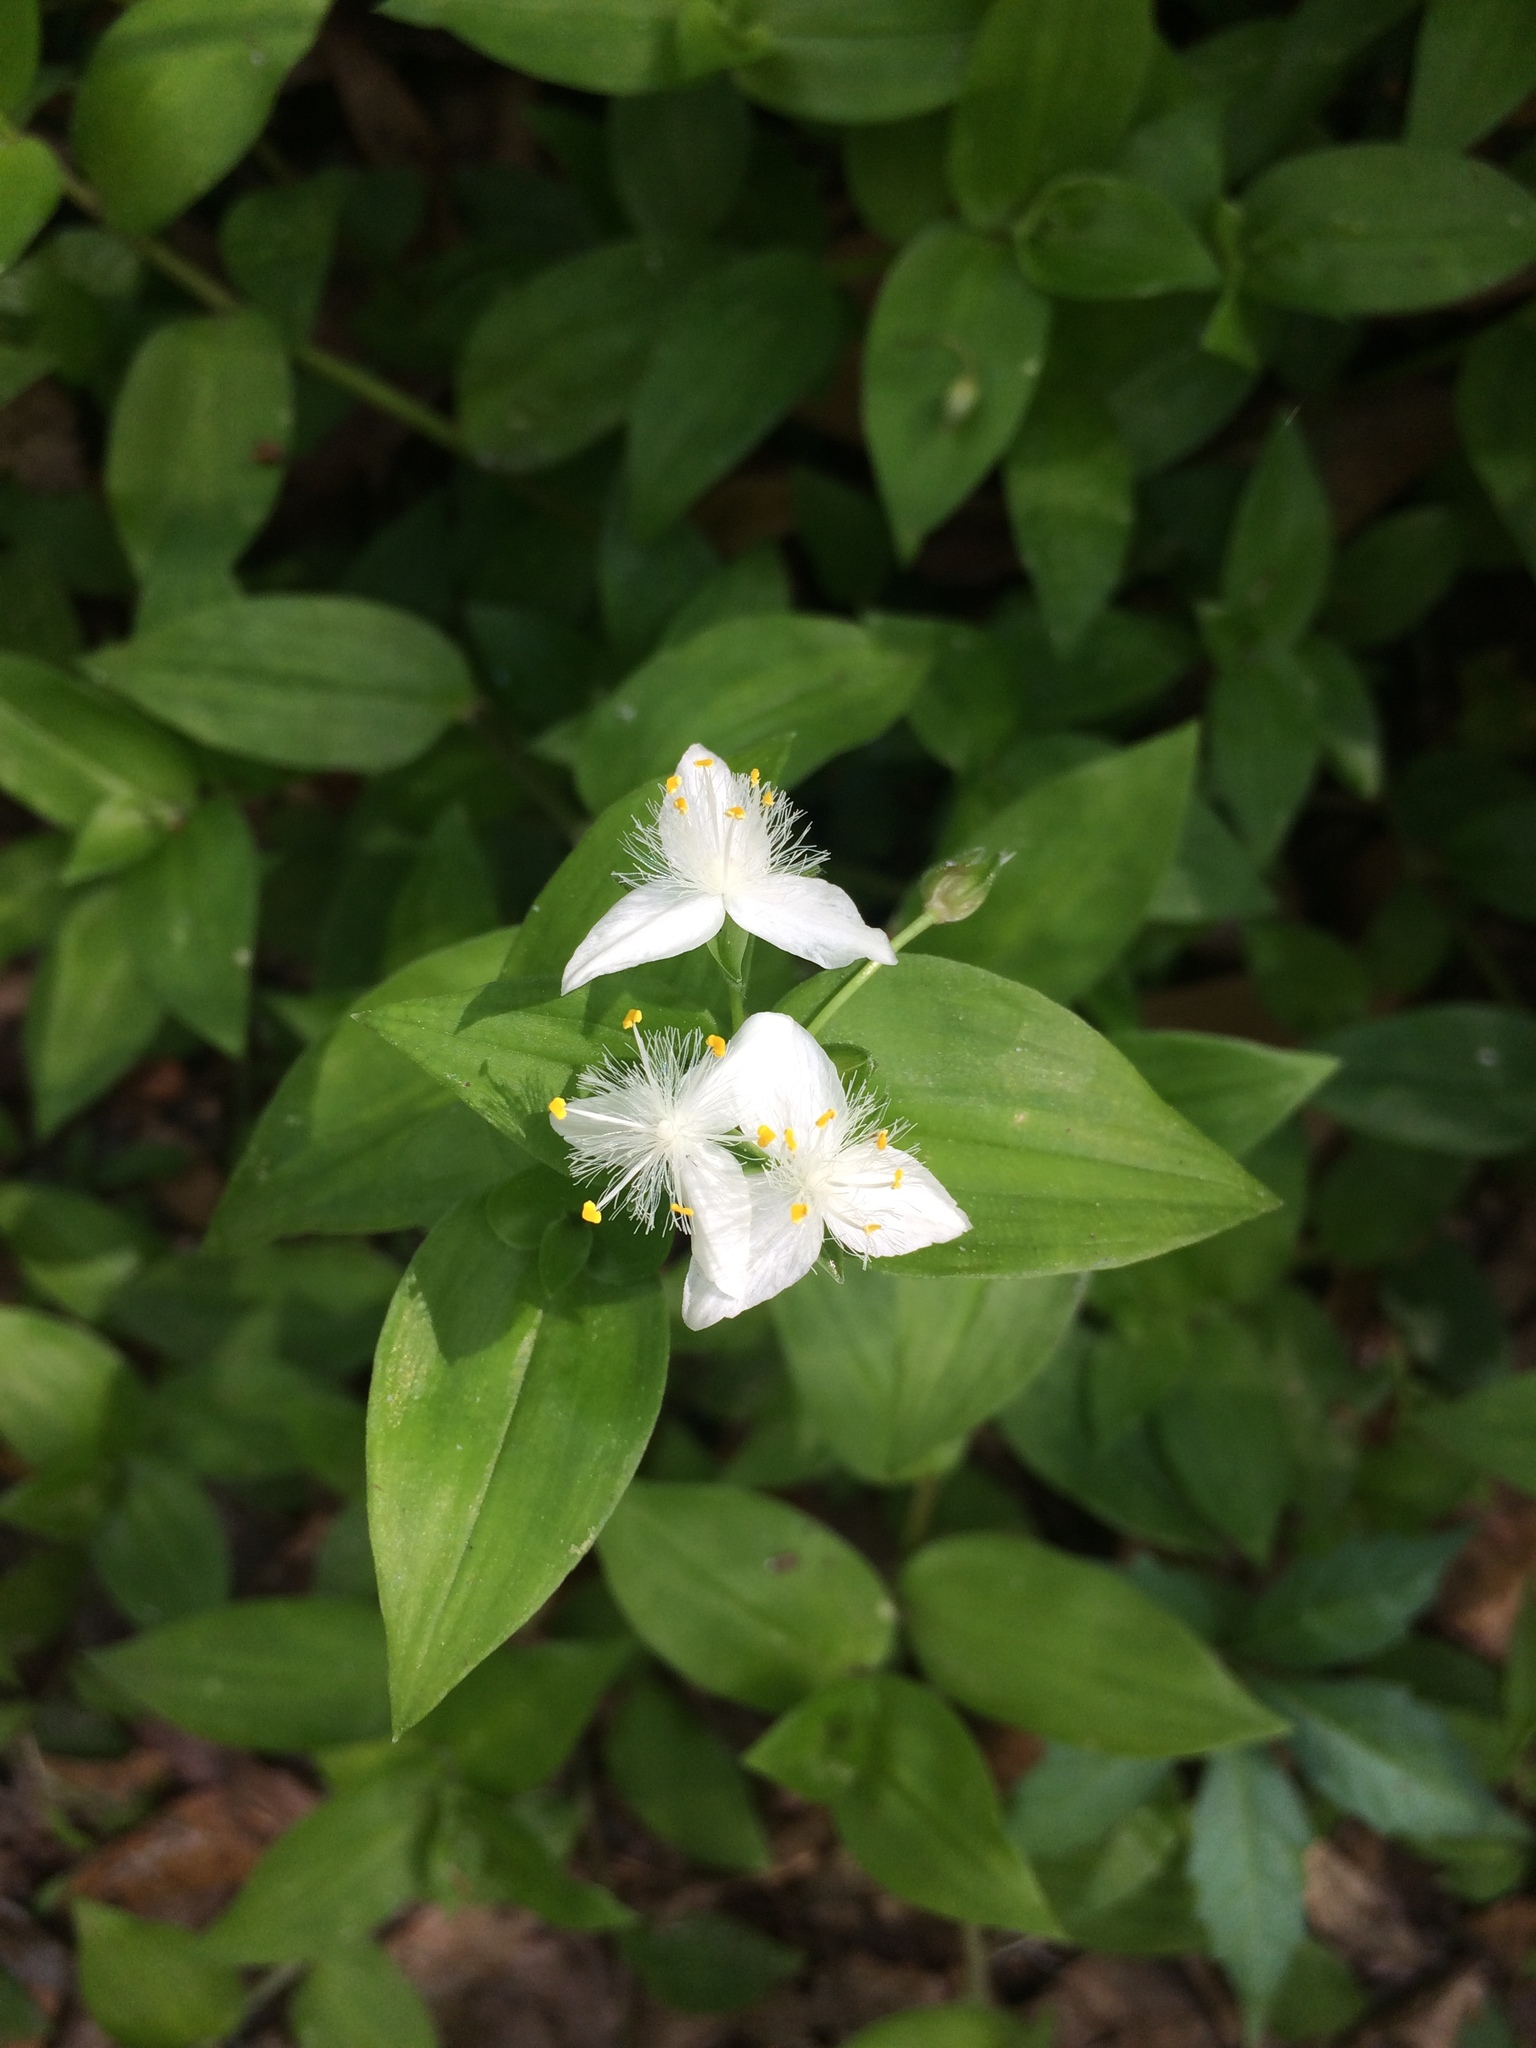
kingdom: Plantae
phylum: Tracheophyta
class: Liliopsida
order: Commelinales
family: Commelinaceae
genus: Tradescantia
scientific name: Tradescantia fluminensis
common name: Wandering-jew
